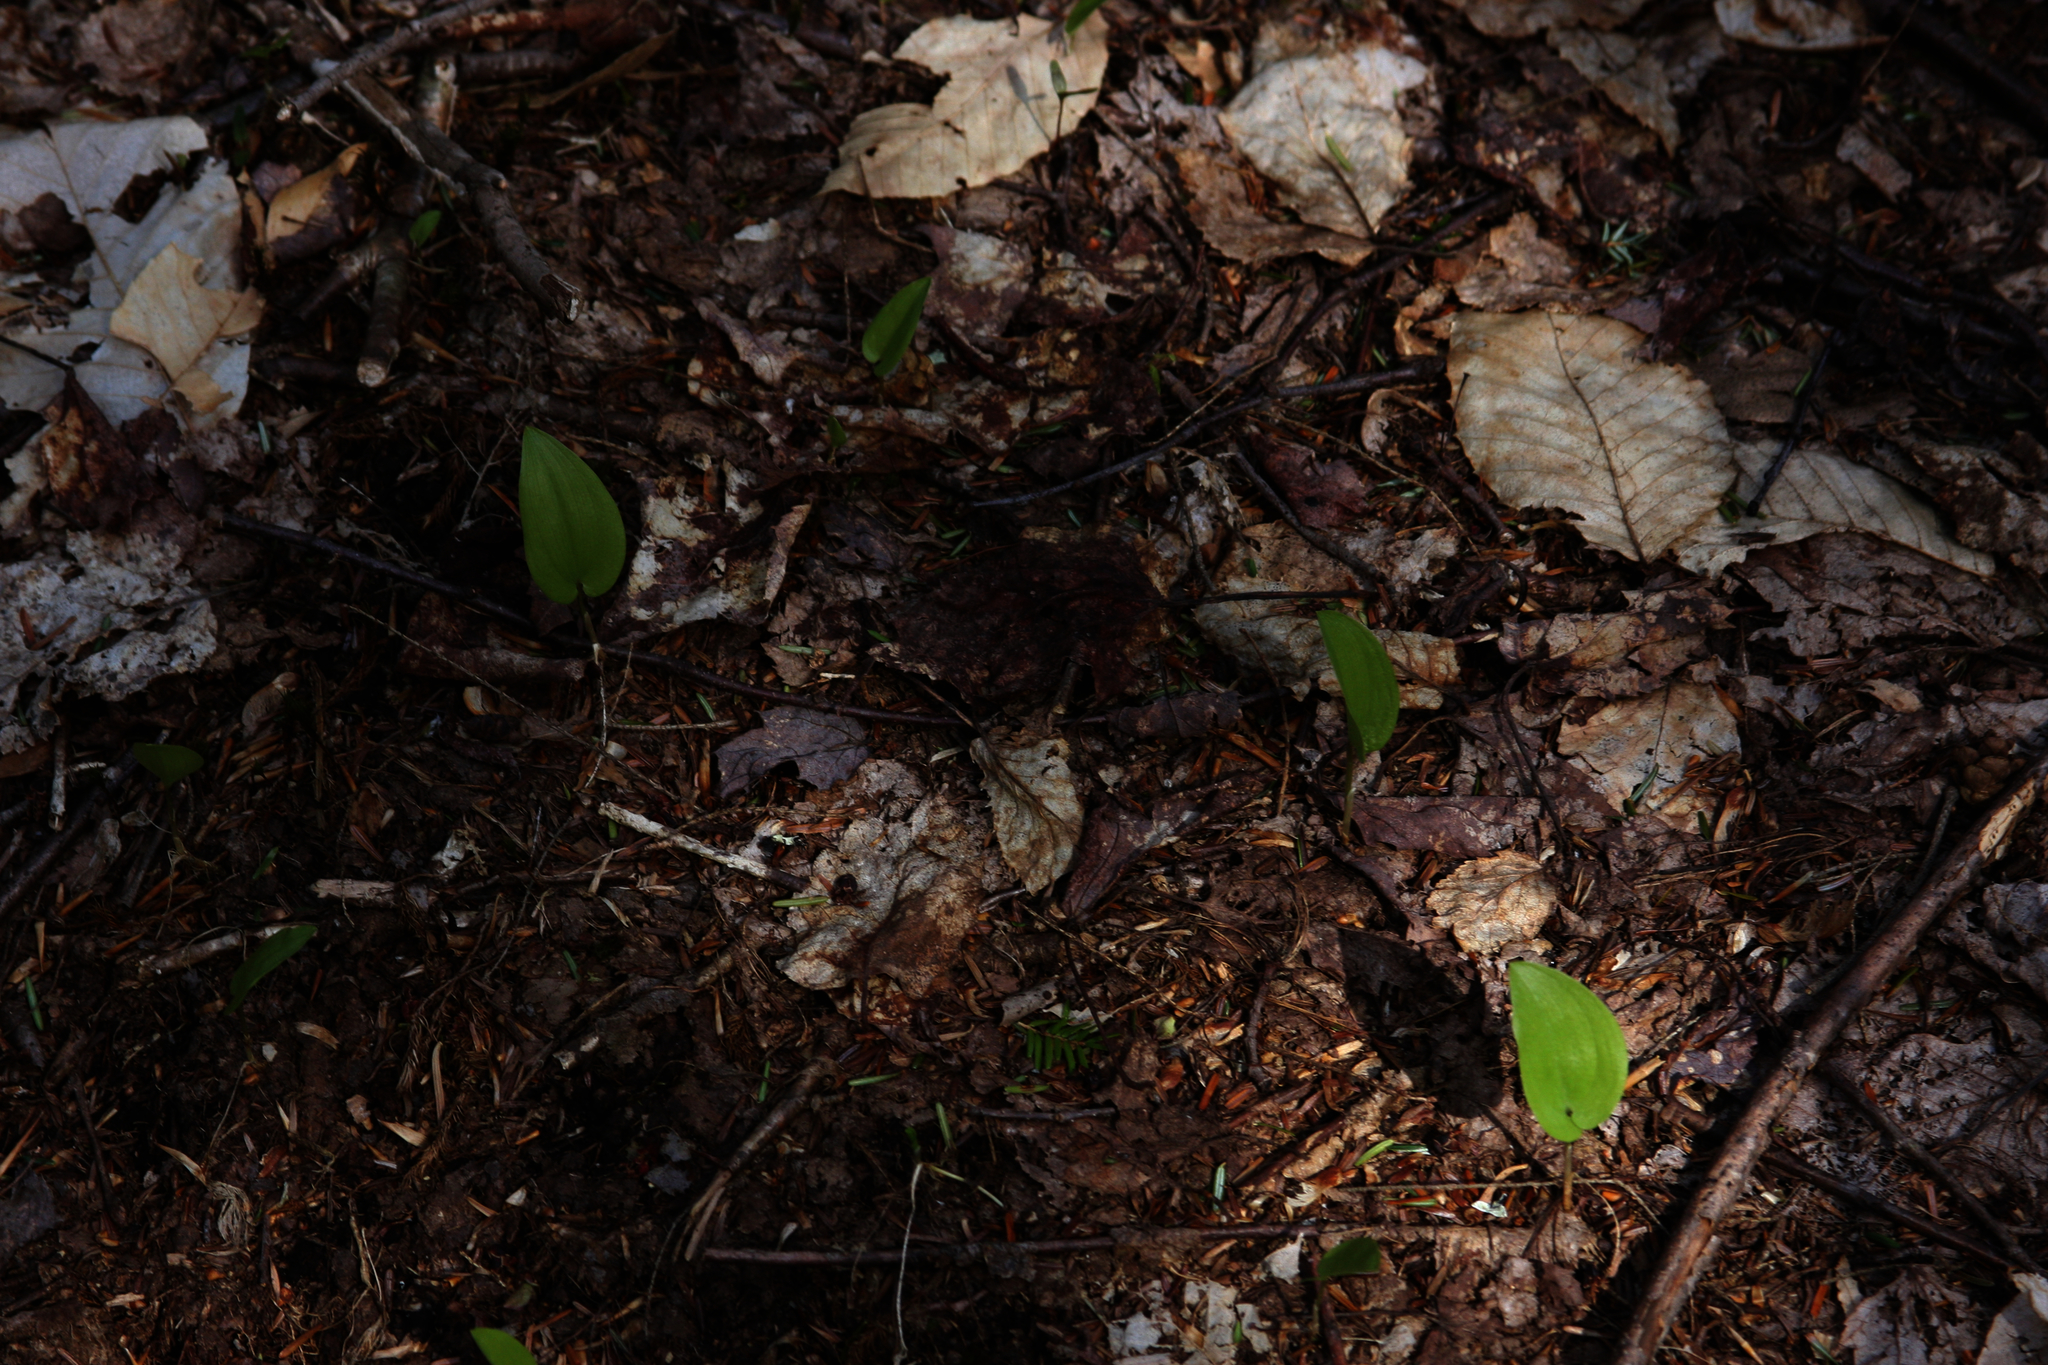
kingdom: Plantae
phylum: Tracheophyta
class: Liliopsida
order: Asparagales
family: Asparagaceae
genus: Maianthemum
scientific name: Maianthemum canadense
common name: False lily-of-the-valley
